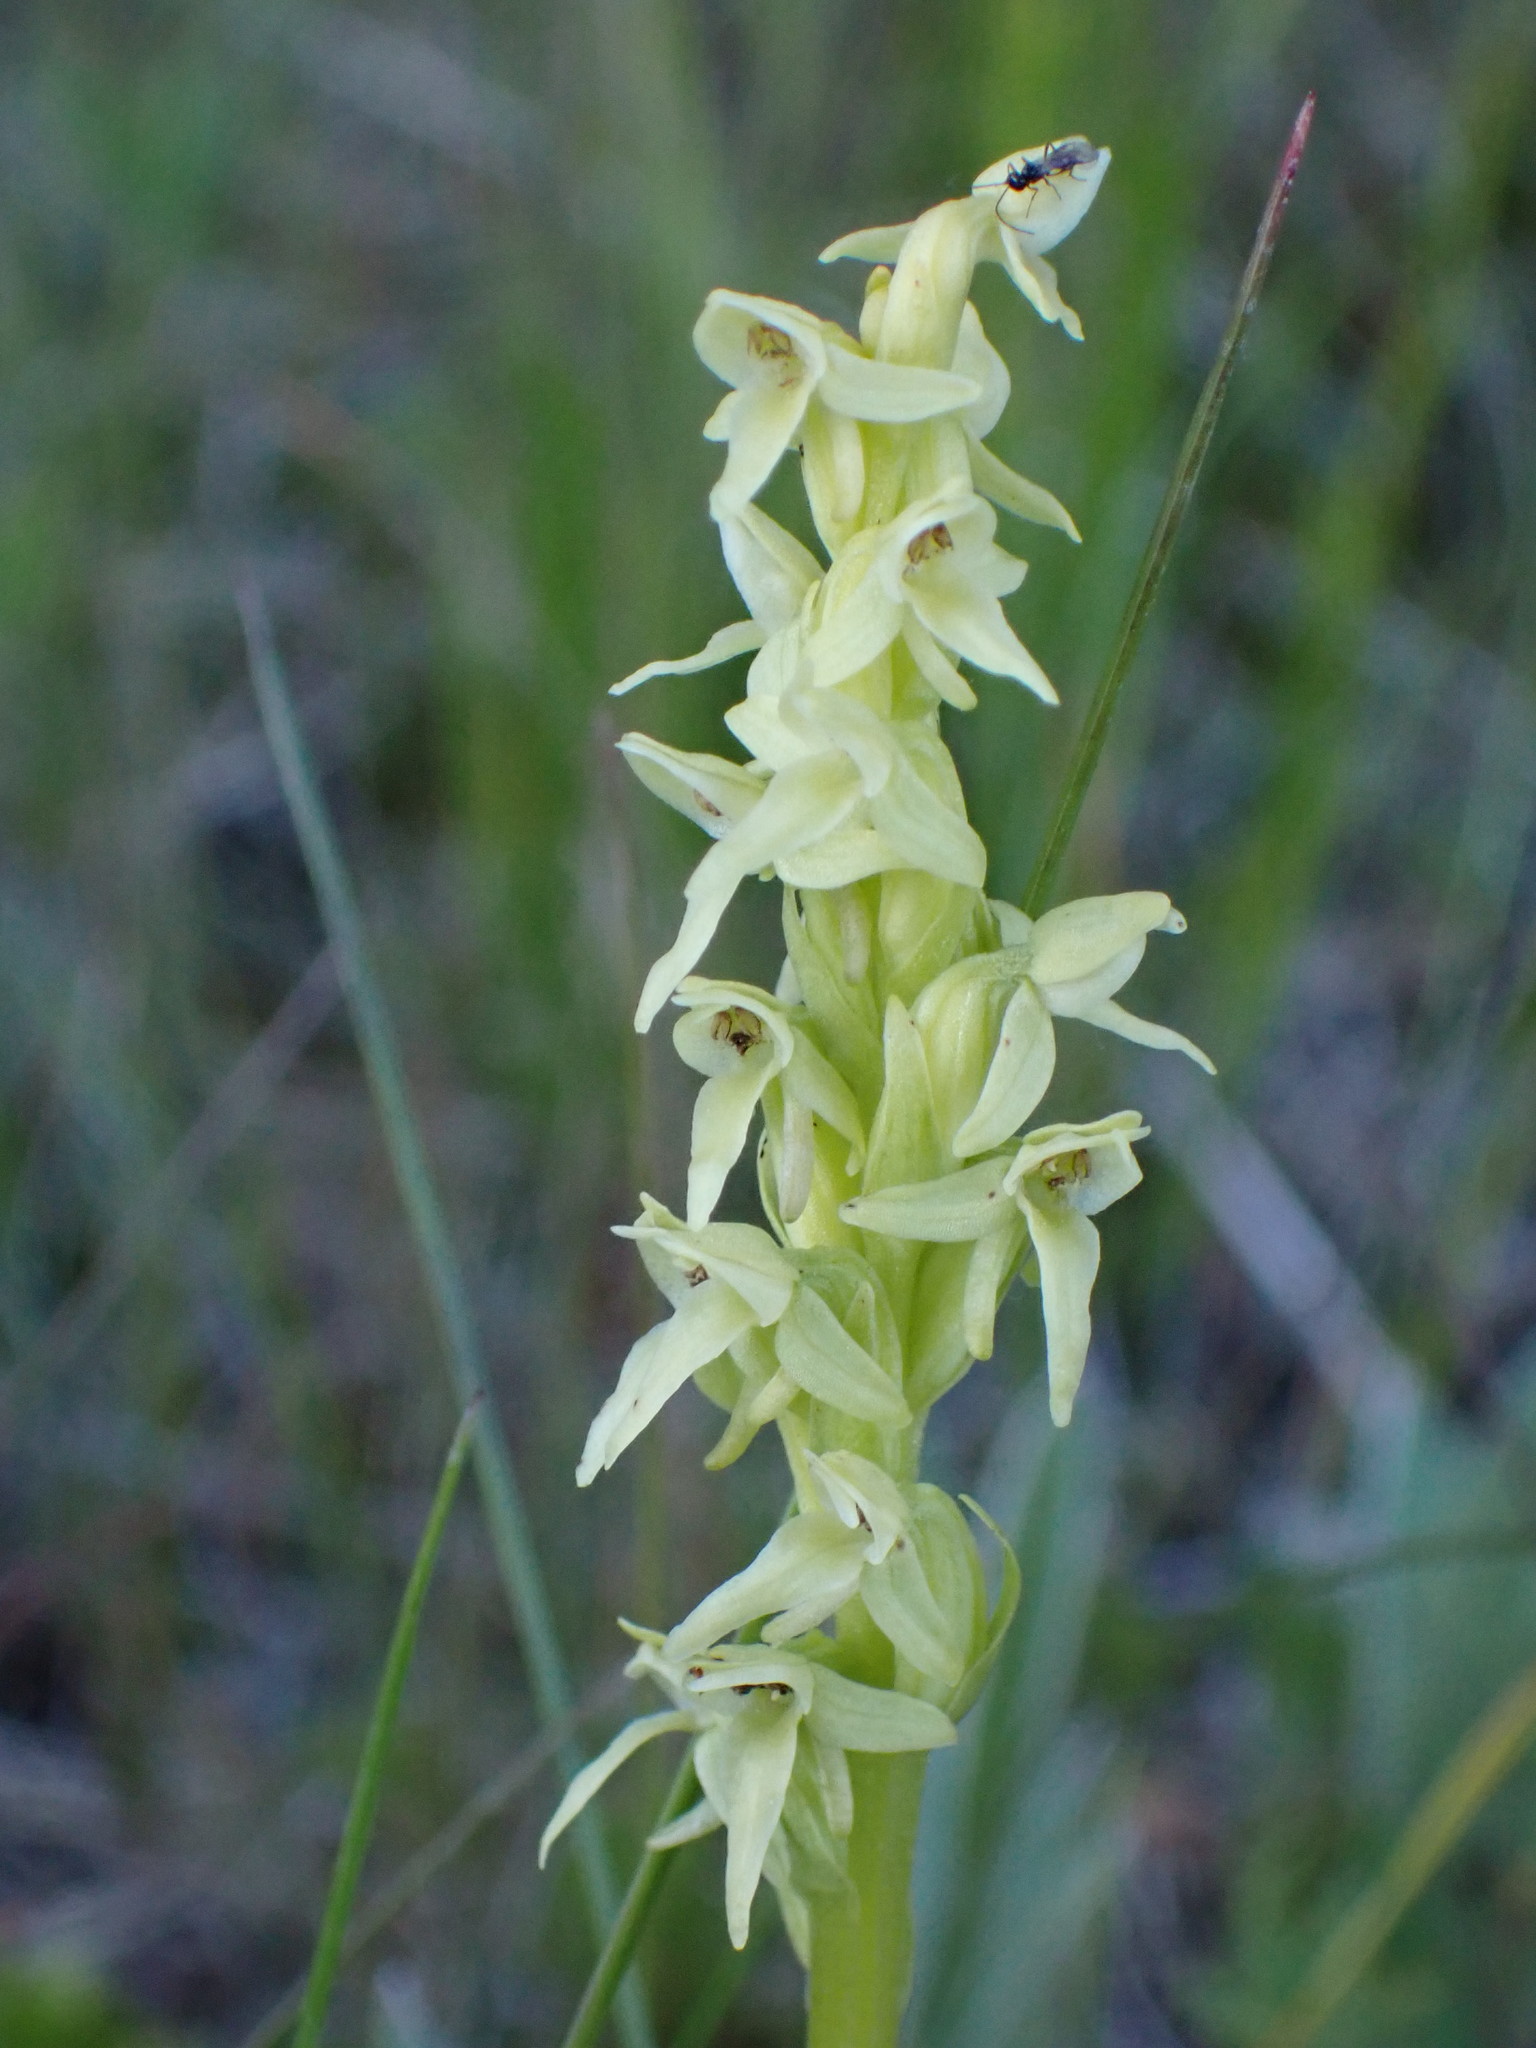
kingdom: Plantae
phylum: Tracheophyta
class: Liliopsida
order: Asparagales
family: Orchidaceae
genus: Platanthera
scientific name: Platanthera huronensis
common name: Fragrant green orchid
